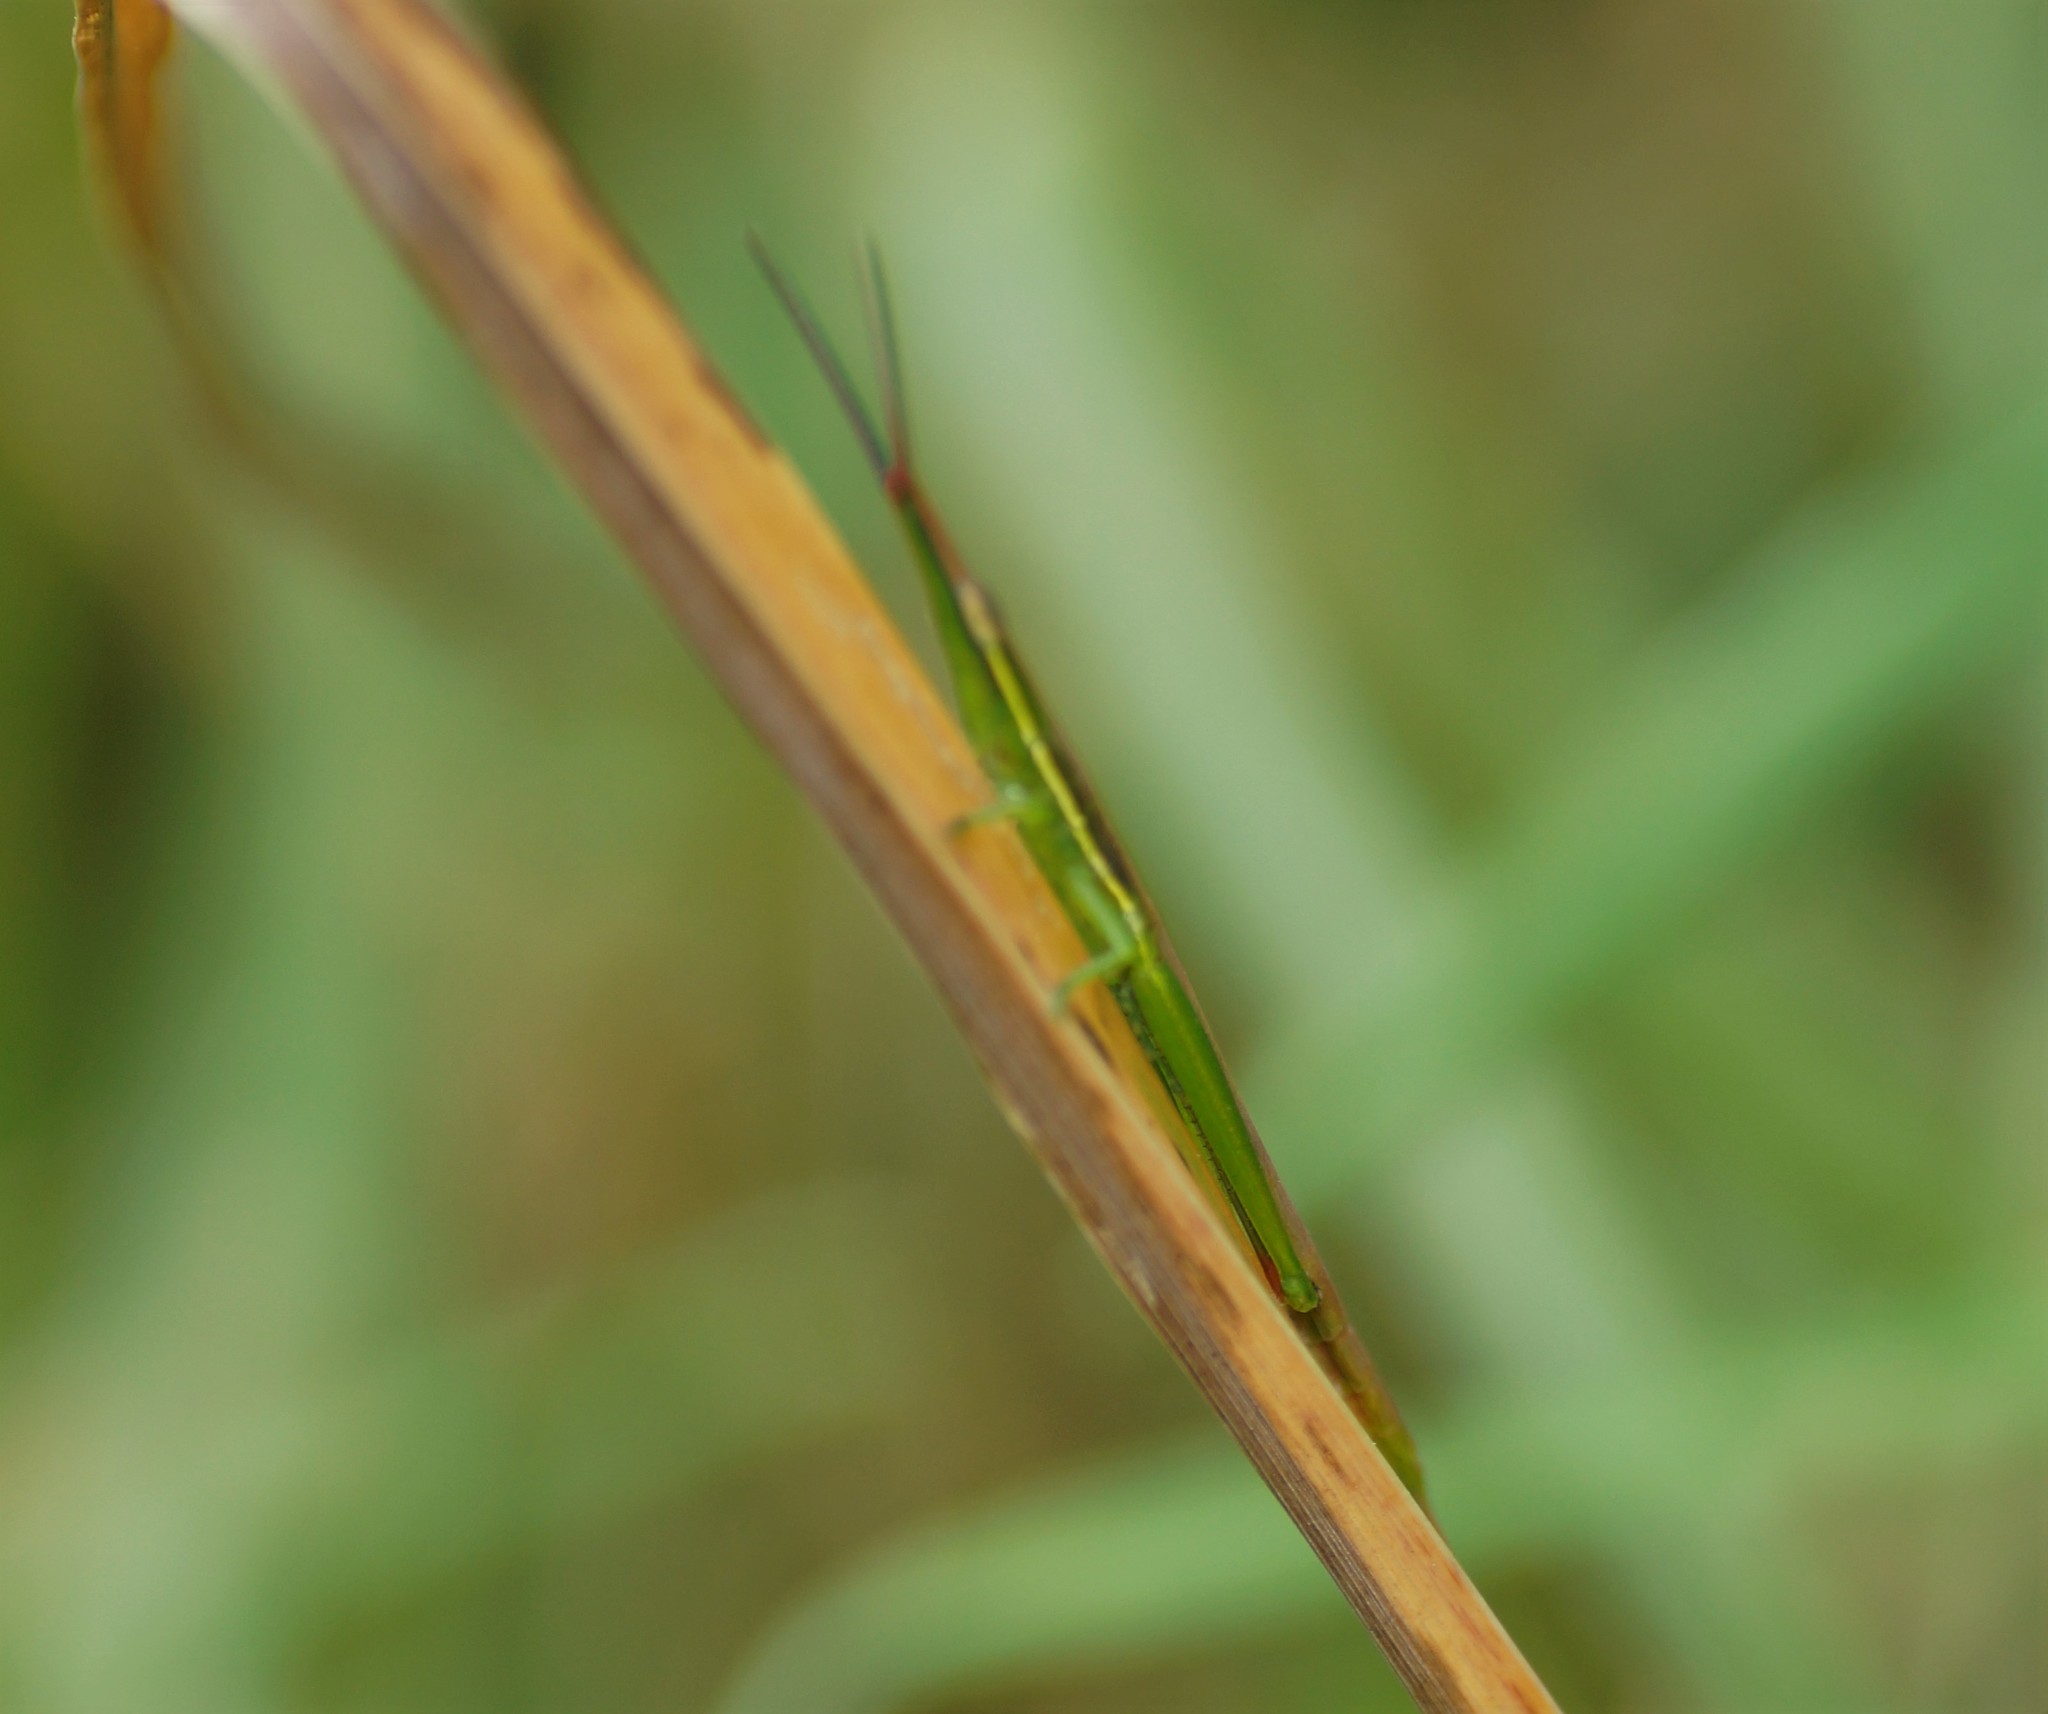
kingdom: Animalia
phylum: Arthropoda
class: Insecta
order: Orthoptera
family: Acrididae
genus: Acrida
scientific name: Acrida conica
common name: Giant green slantface
